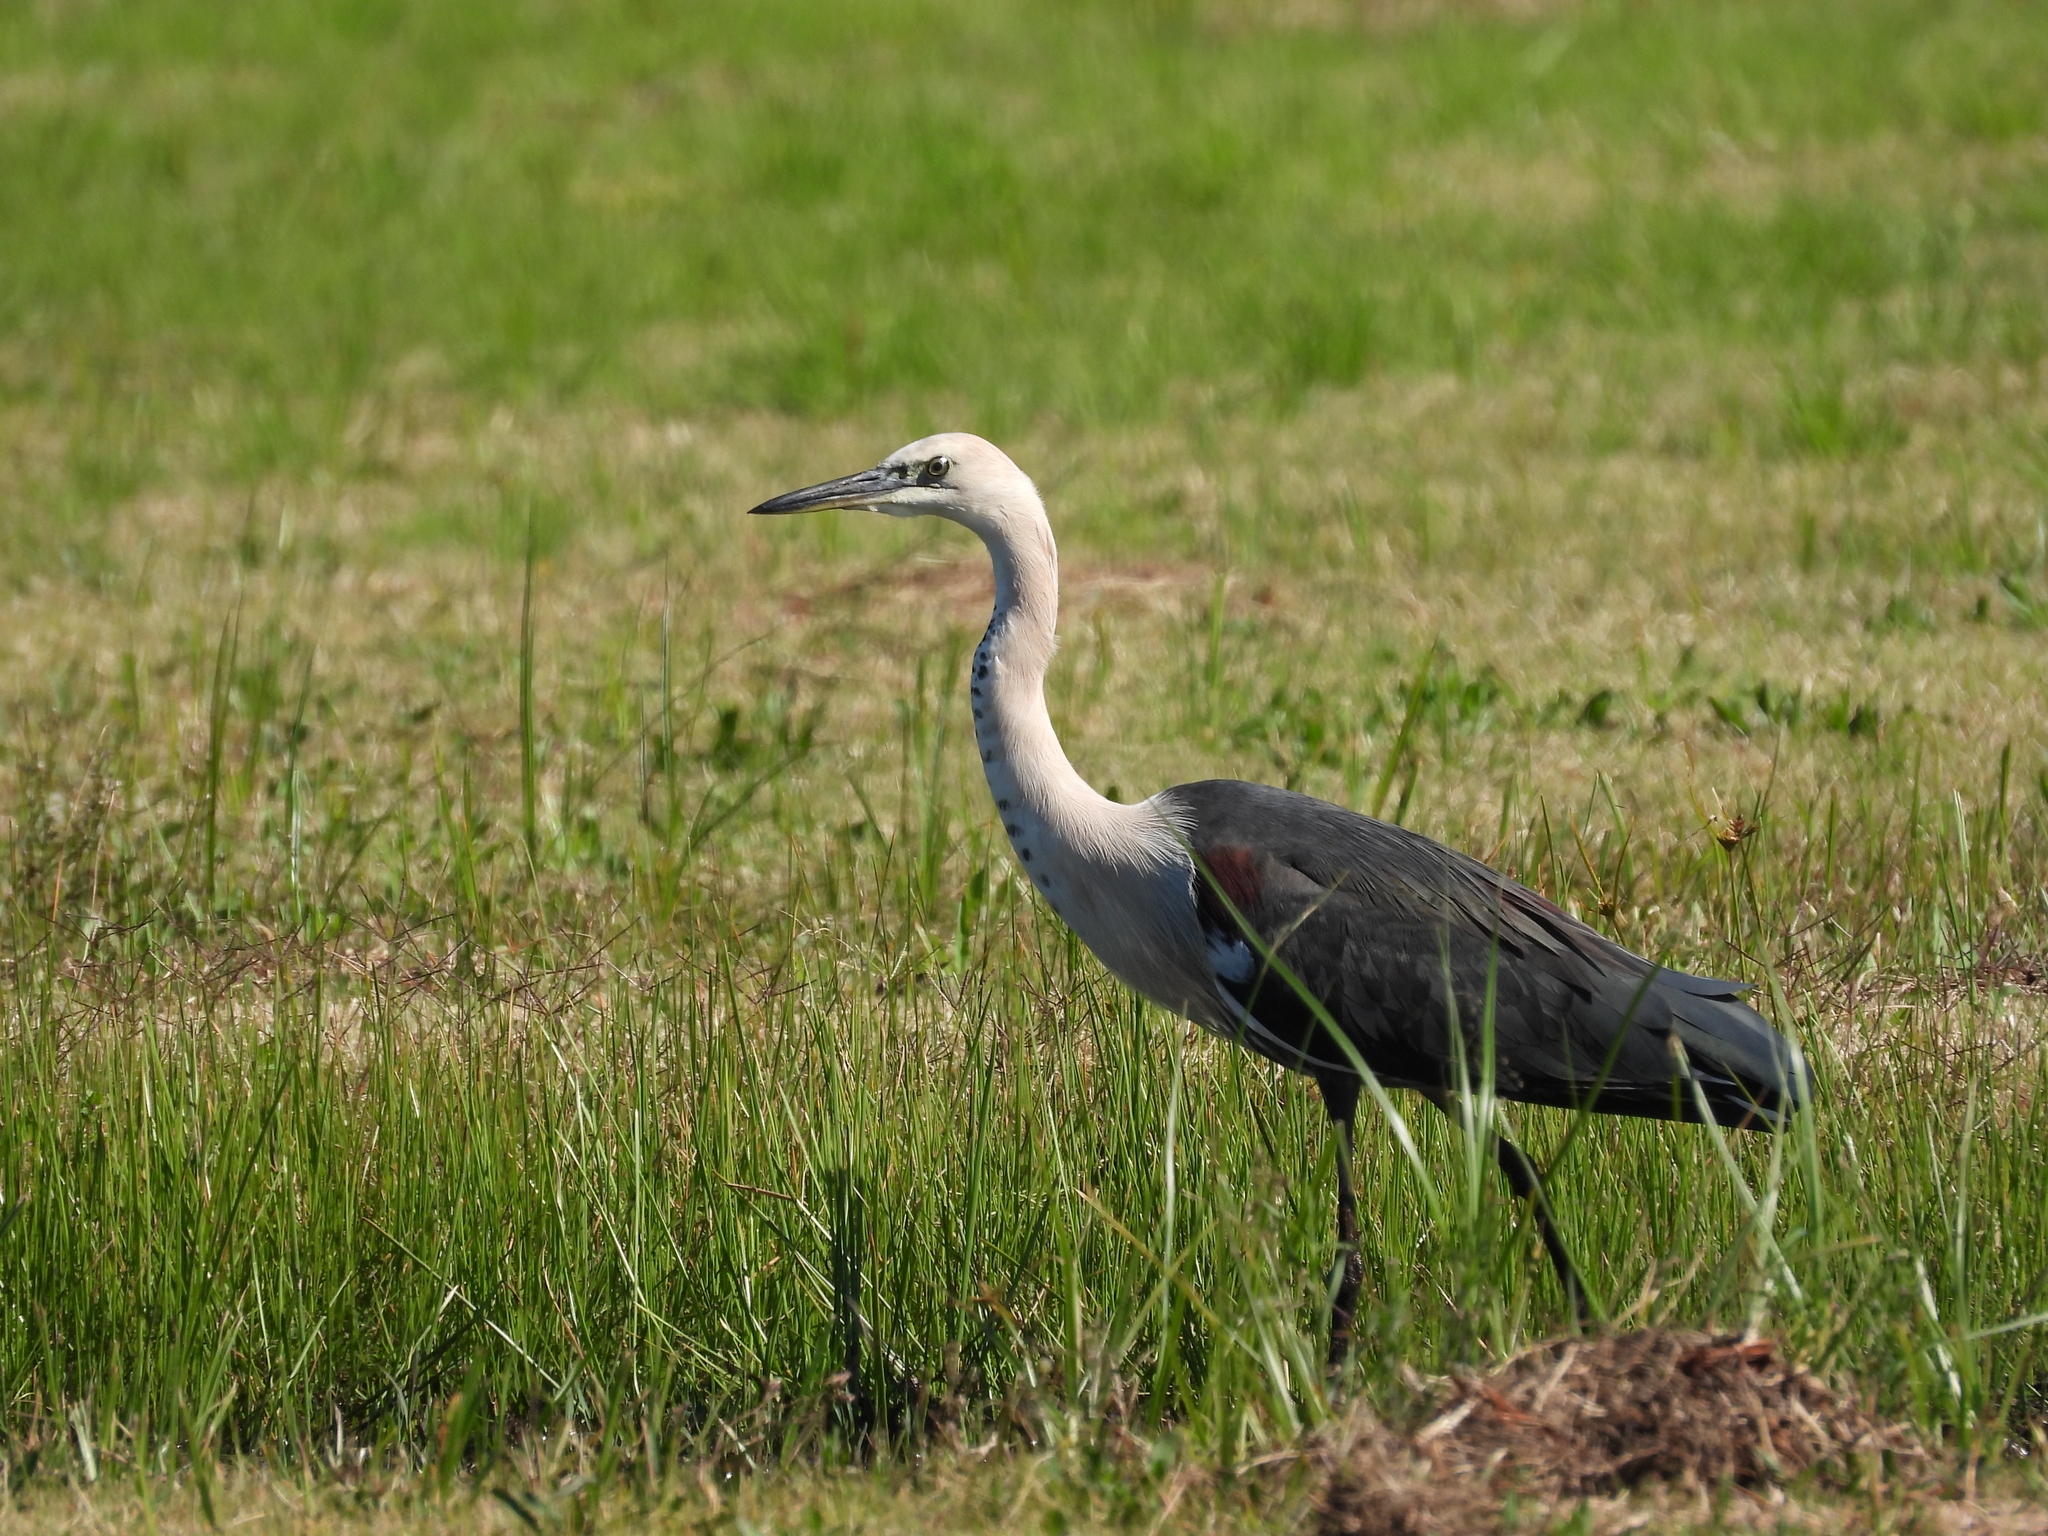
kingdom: Animalia
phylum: Chordata
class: Aves
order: Pelecaniformes
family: Ardeidae
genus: Ardea
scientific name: Ardea pacifica
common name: White-necked heron
